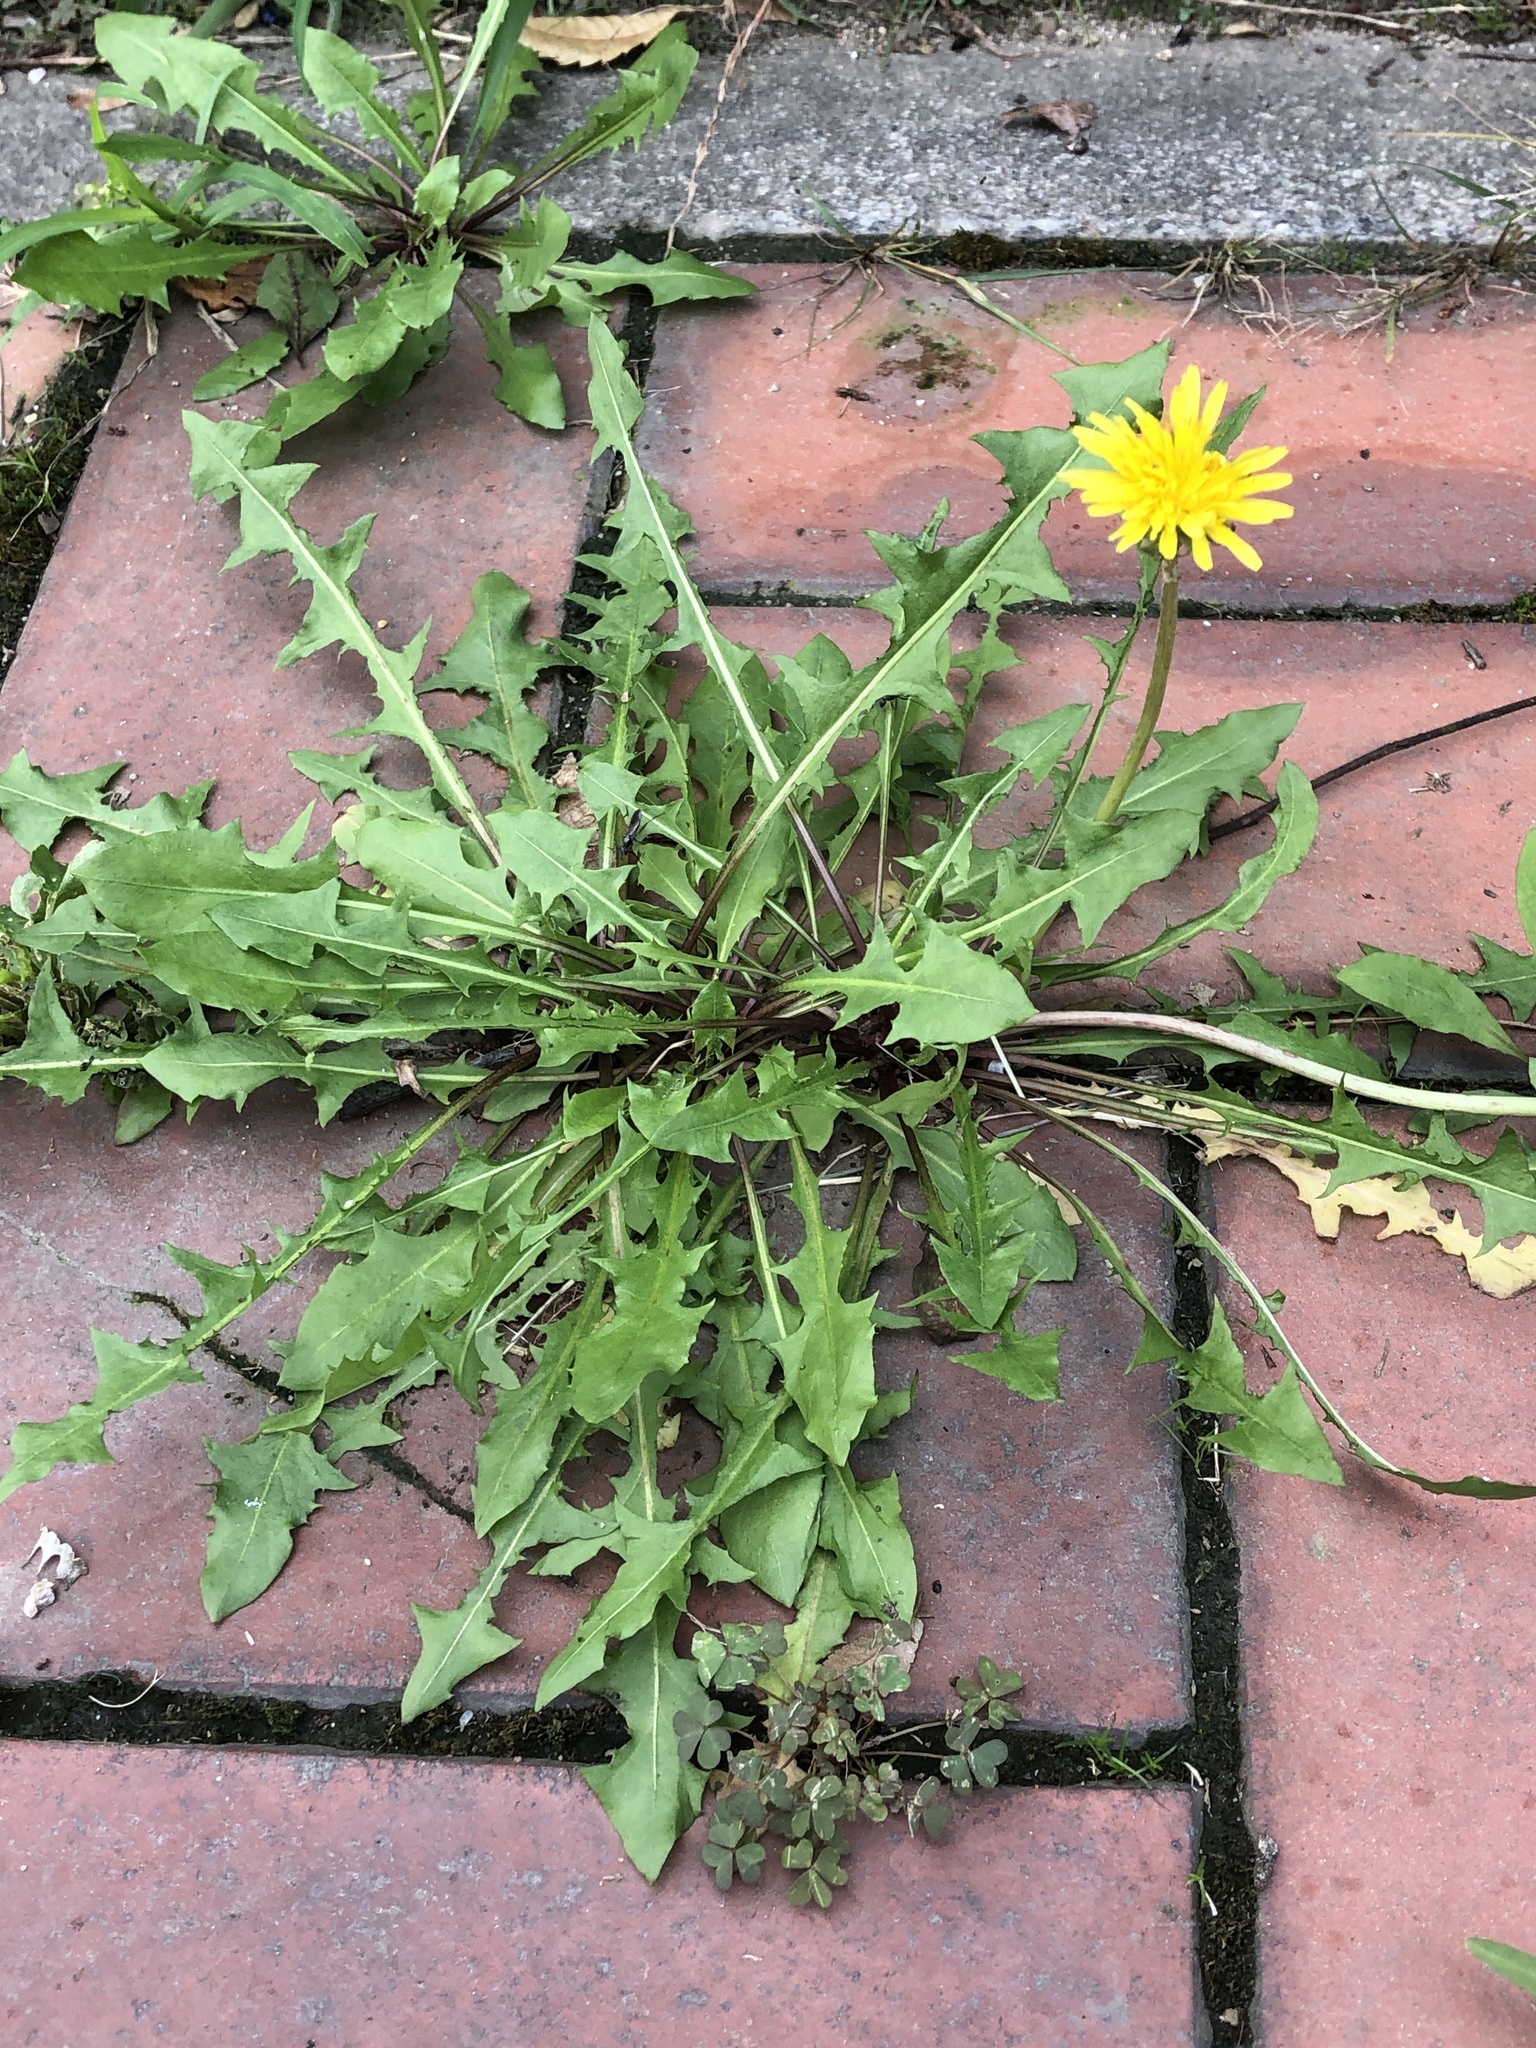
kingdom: Plantae
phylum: Tracheophyta
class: Magnoliopsida
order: Asterales
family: Asteraceae
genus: Taraxacum
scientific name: Taraxacum officinale
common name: Common dandelion
